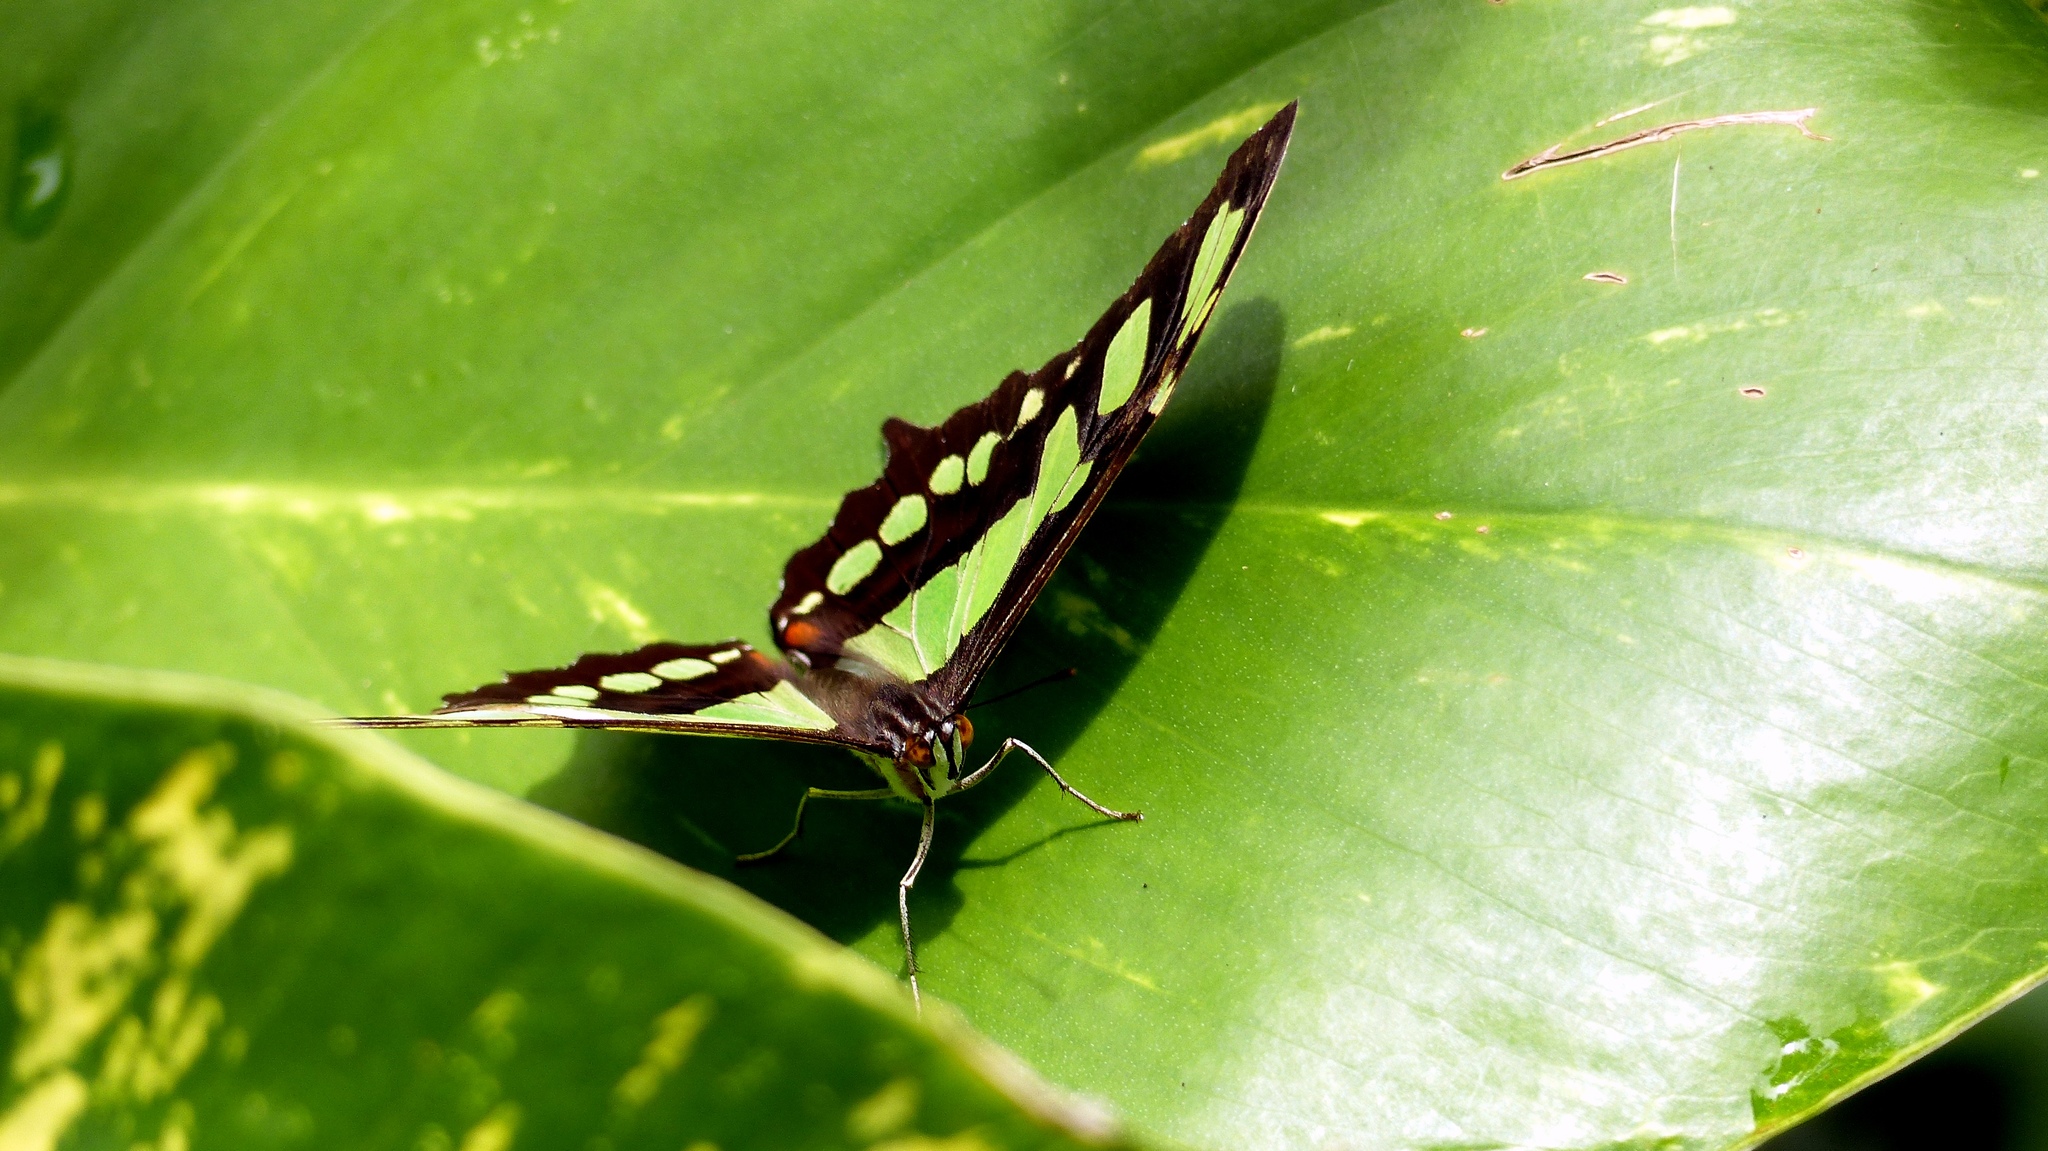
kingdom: Animalia
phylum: Arthropoda
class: Insecta
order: Lepidoptera
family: Nymphalidae
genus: Siproeta
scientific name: Siproeta stelenes
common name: Malachite
